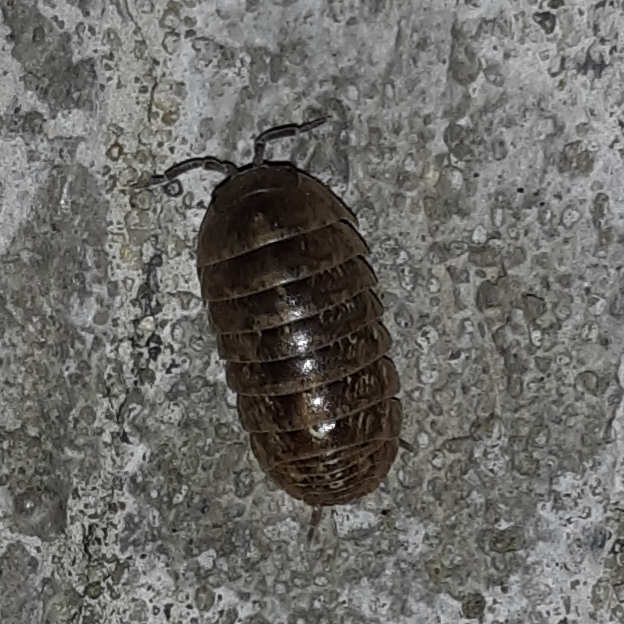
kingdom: Animalia
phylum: Arthropoda
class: Malacostraca
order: Isopoda
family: Armadillidiidae
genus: Armadillidium
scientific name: Armadillidium vulgare
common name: Common pill woodlouse
